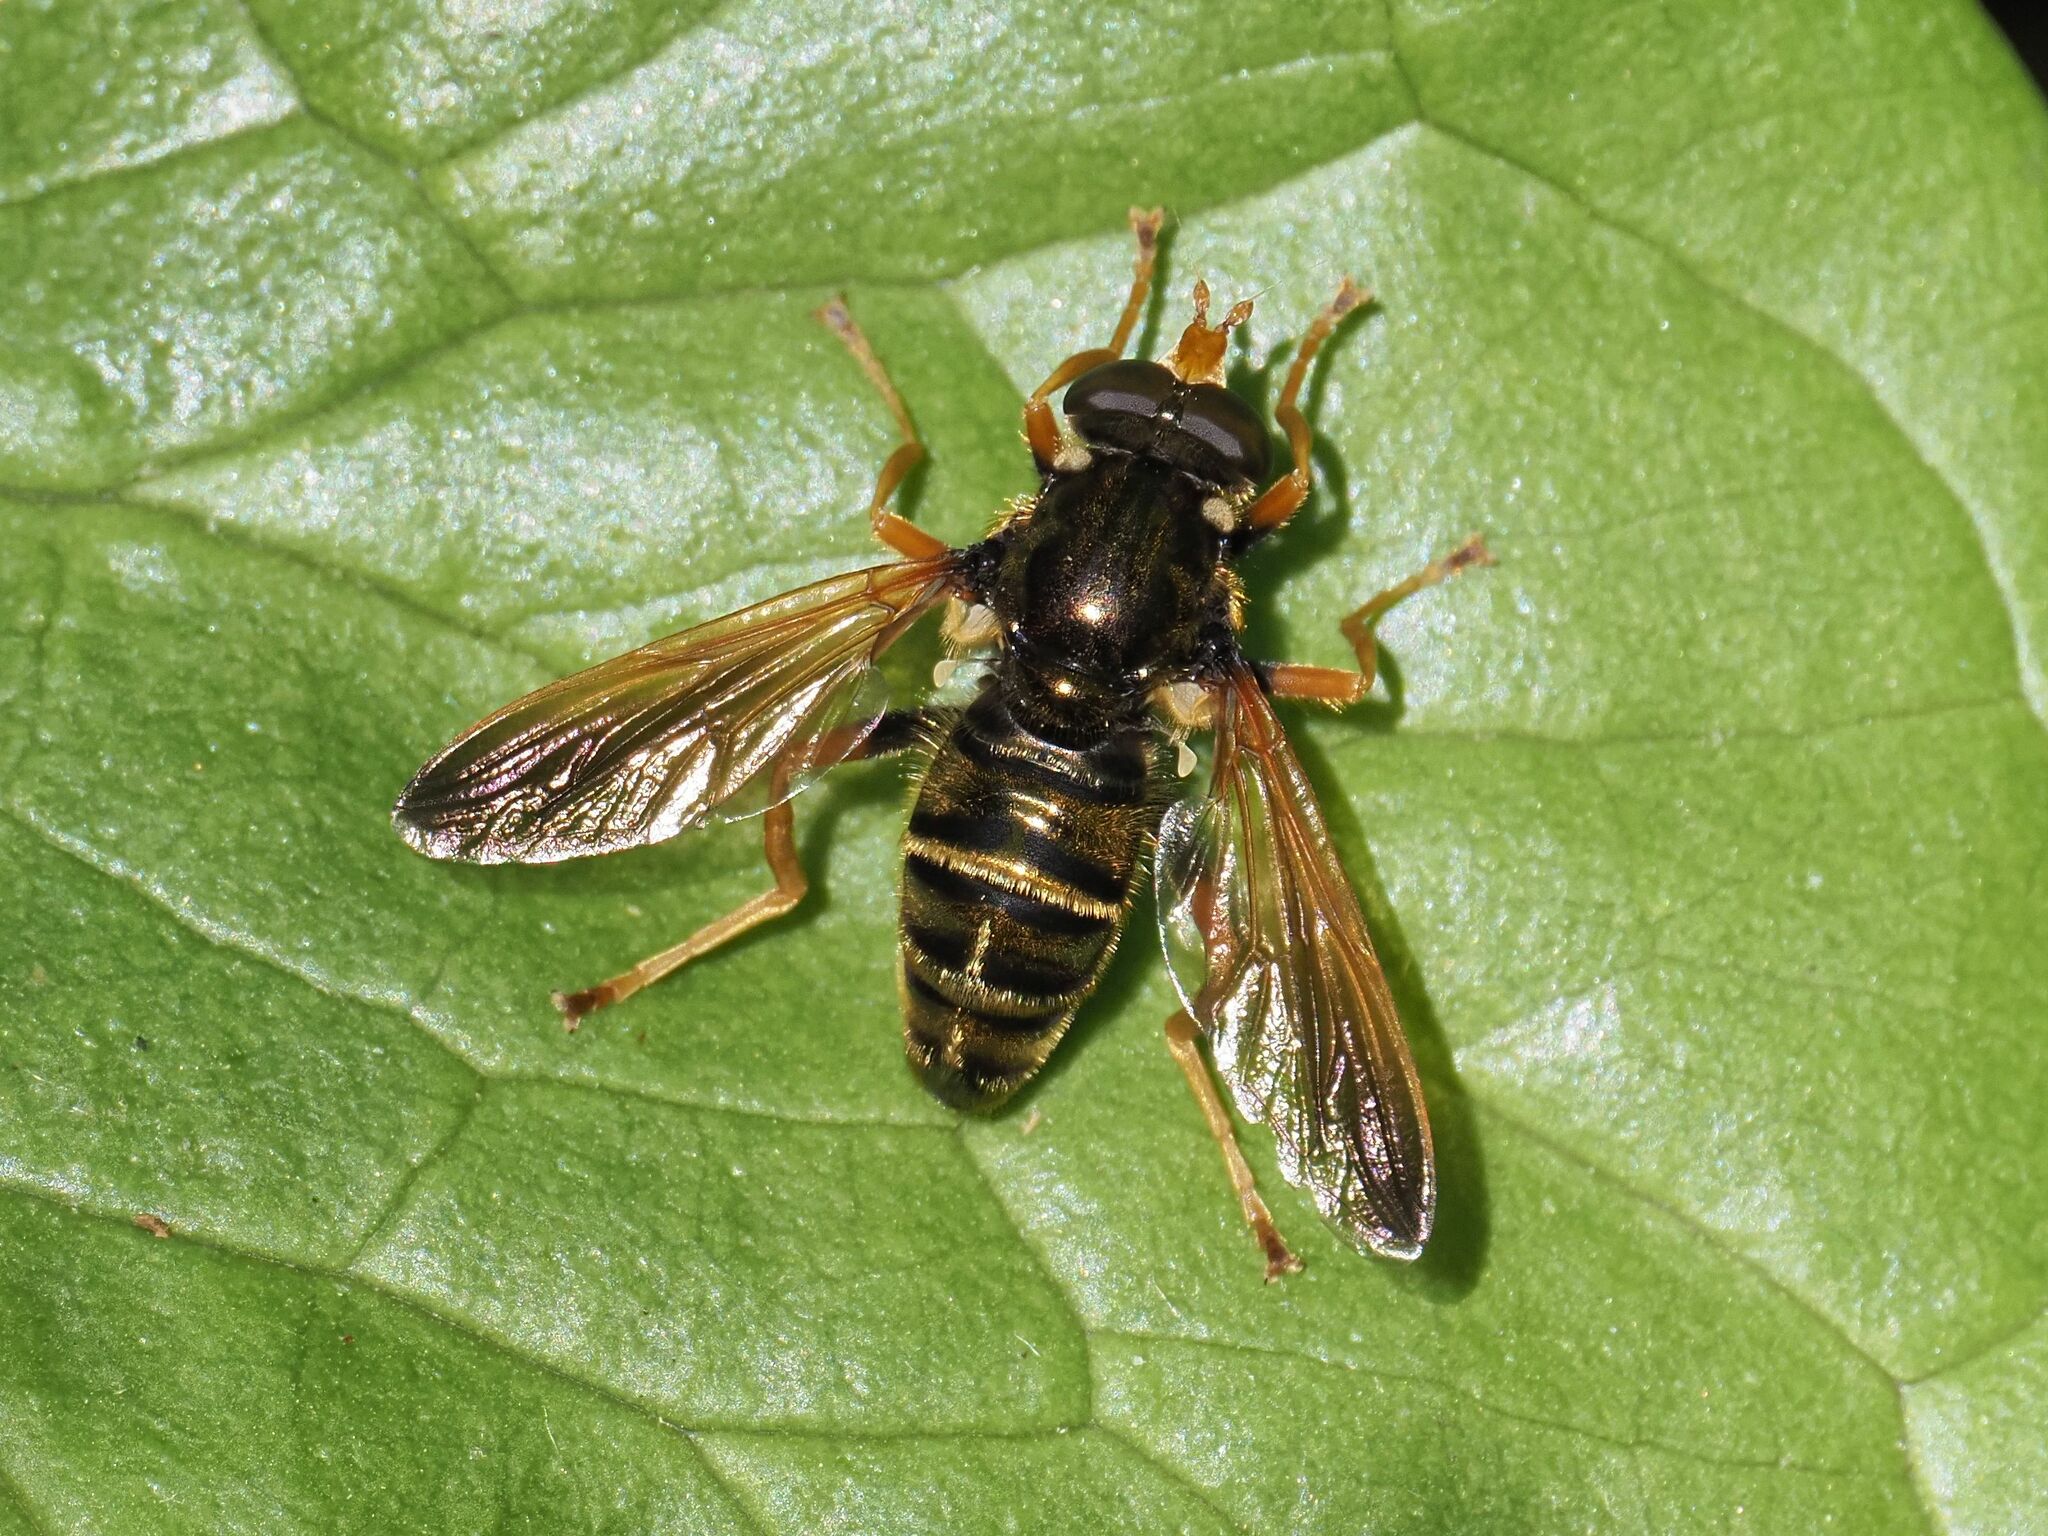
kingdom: Animalia
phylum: Arthropoda
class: Insecta
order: Diptera
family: Syrphidae
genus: Caliprobola
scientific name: Caliprobola speciosa
